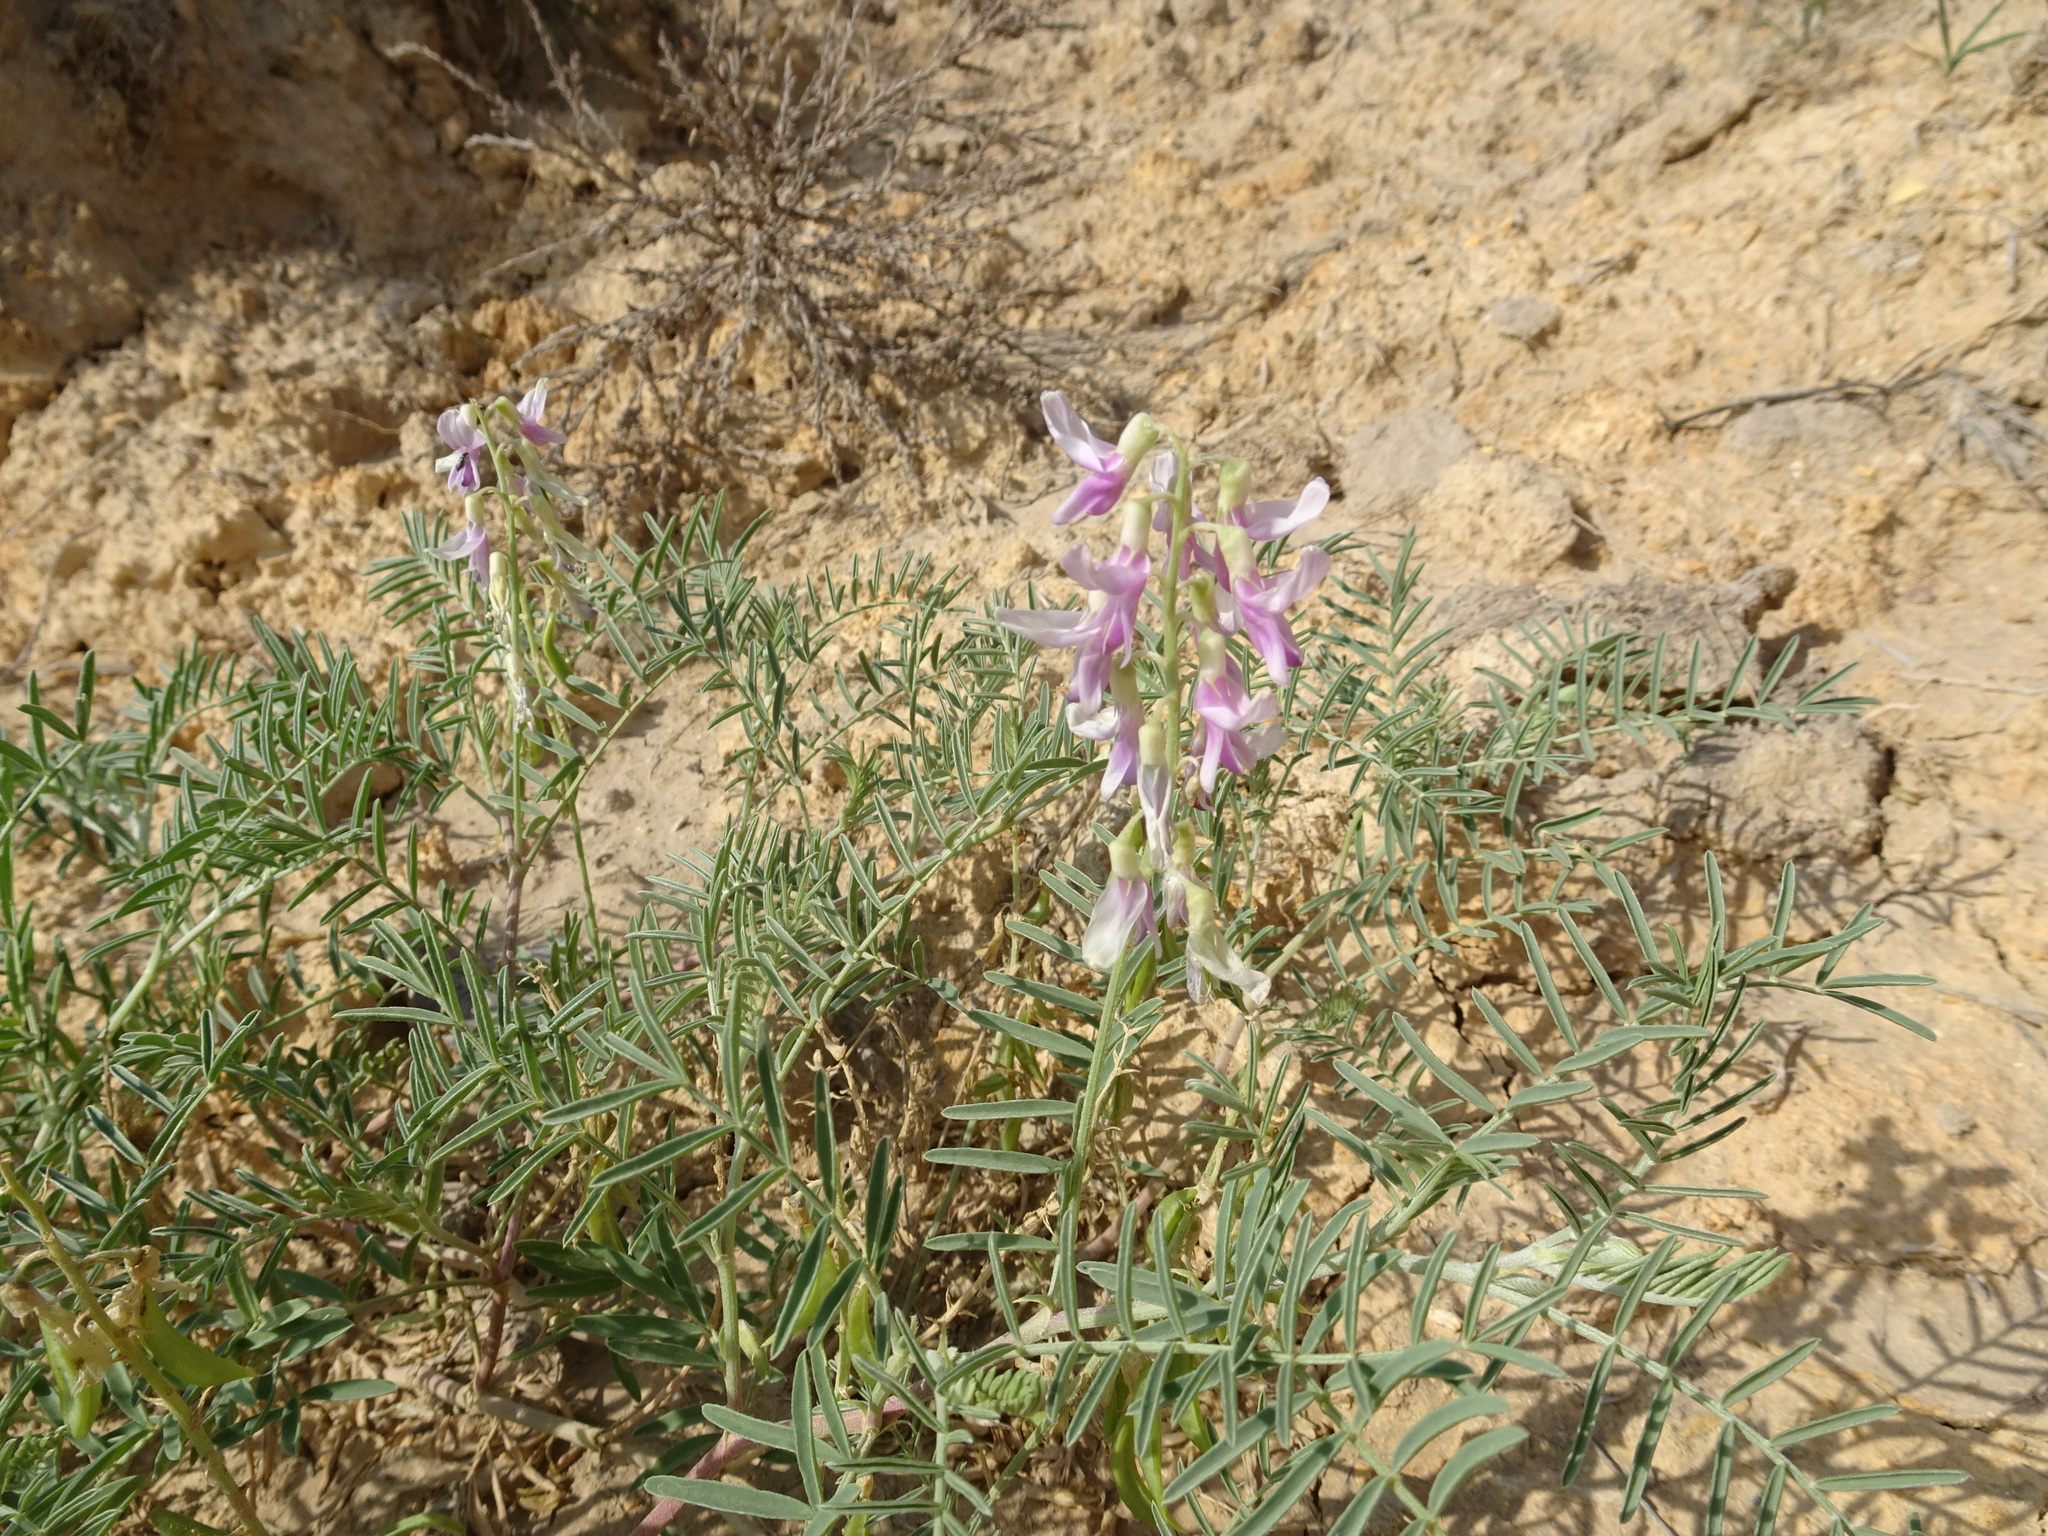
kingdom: Plantae
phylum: Tracheophyta
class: Magnoliopsida
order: Fabales
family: Fabaceae
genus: Astragalus
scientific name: Astragalus racemosus
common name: Alkali milk-vetch
